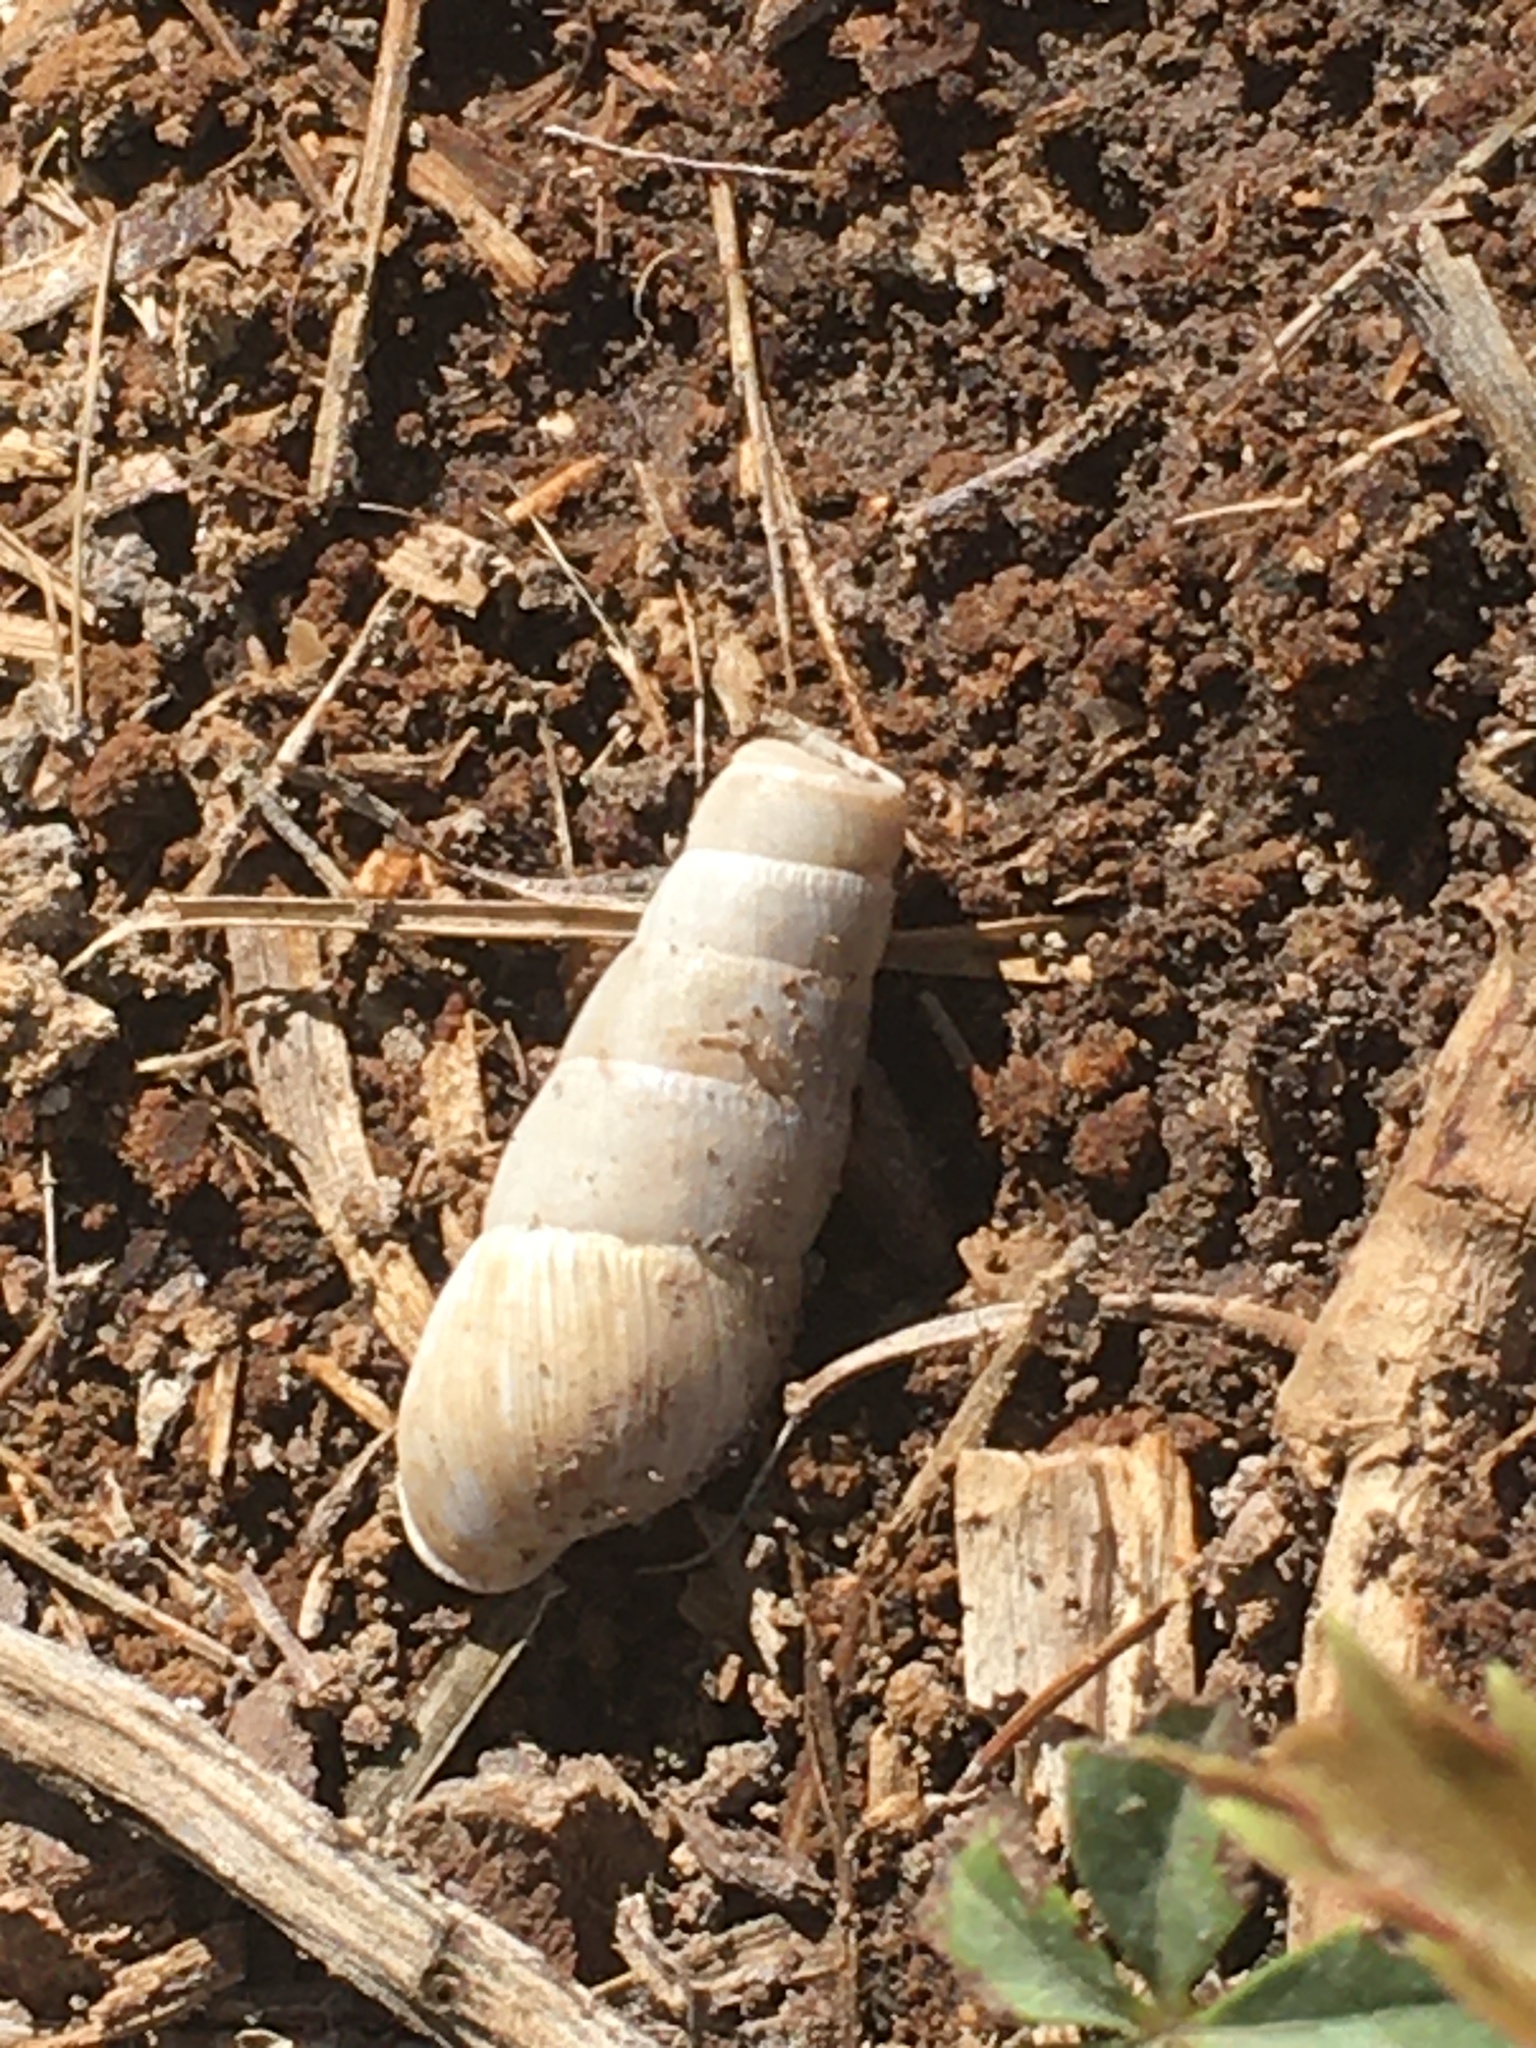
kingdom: Animalia
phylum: Mollusca
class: Gastropoda
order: Stylommatophora
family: Achatinidae
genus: Rumina
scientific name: Rumina decollata
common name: Decollate snail
